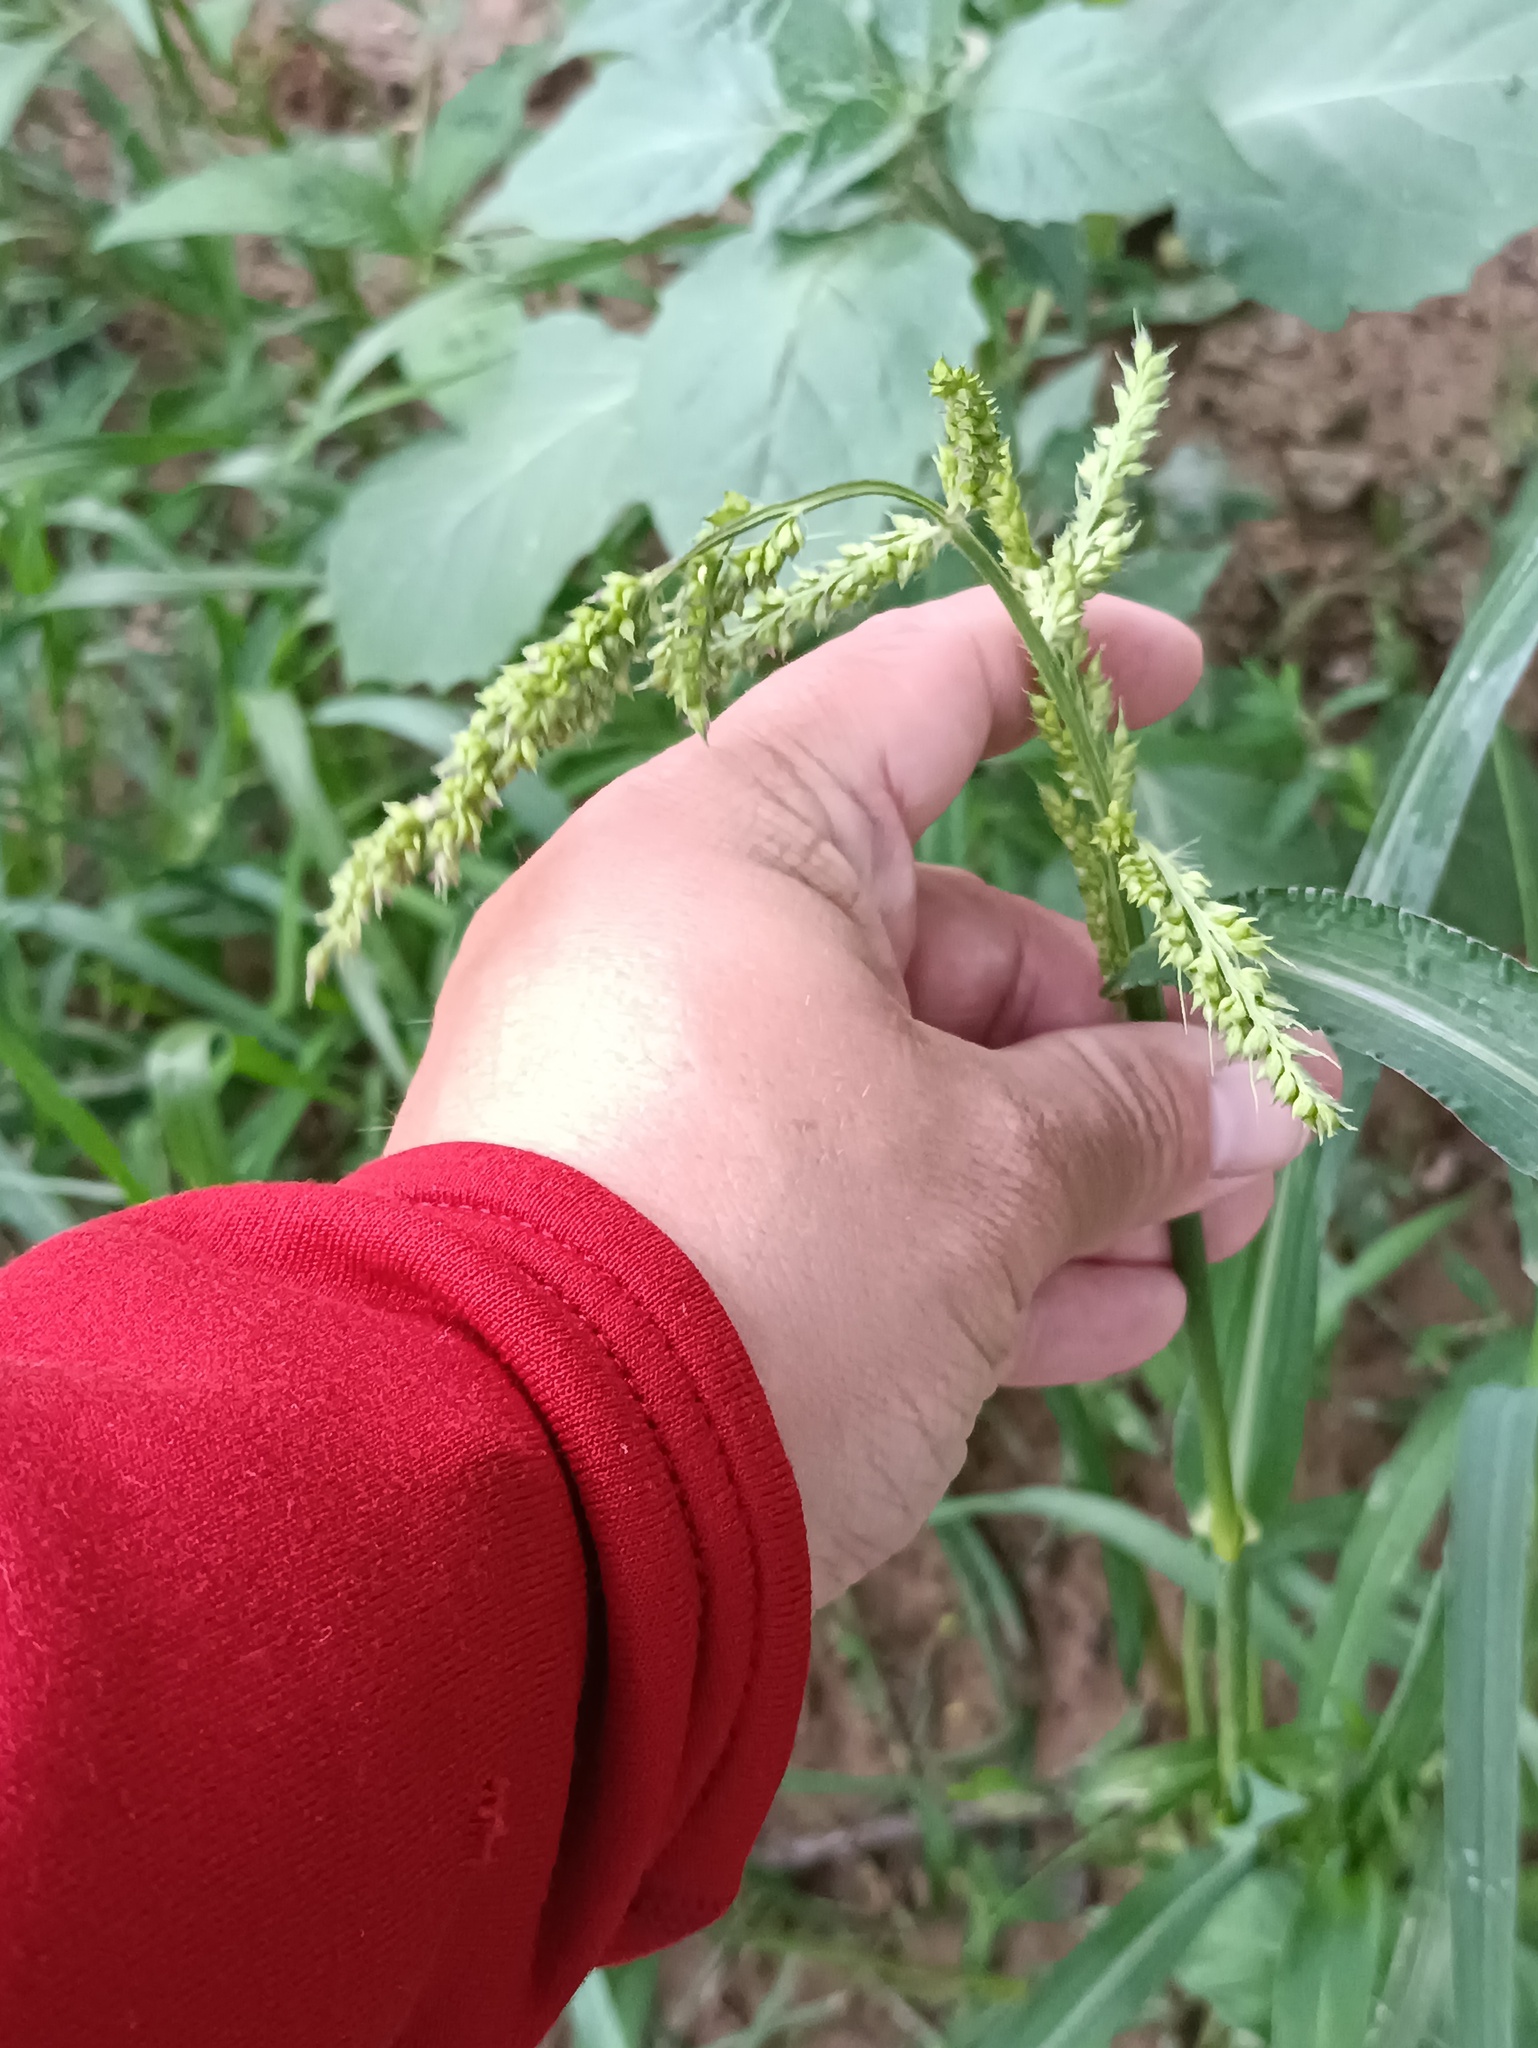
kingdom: Plantae
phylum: Tracheophyta
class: Liliopsida
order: Poales
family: Poaceae
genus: Echinochloa
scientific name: Echinochloa crus-galli
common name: Cockspur
